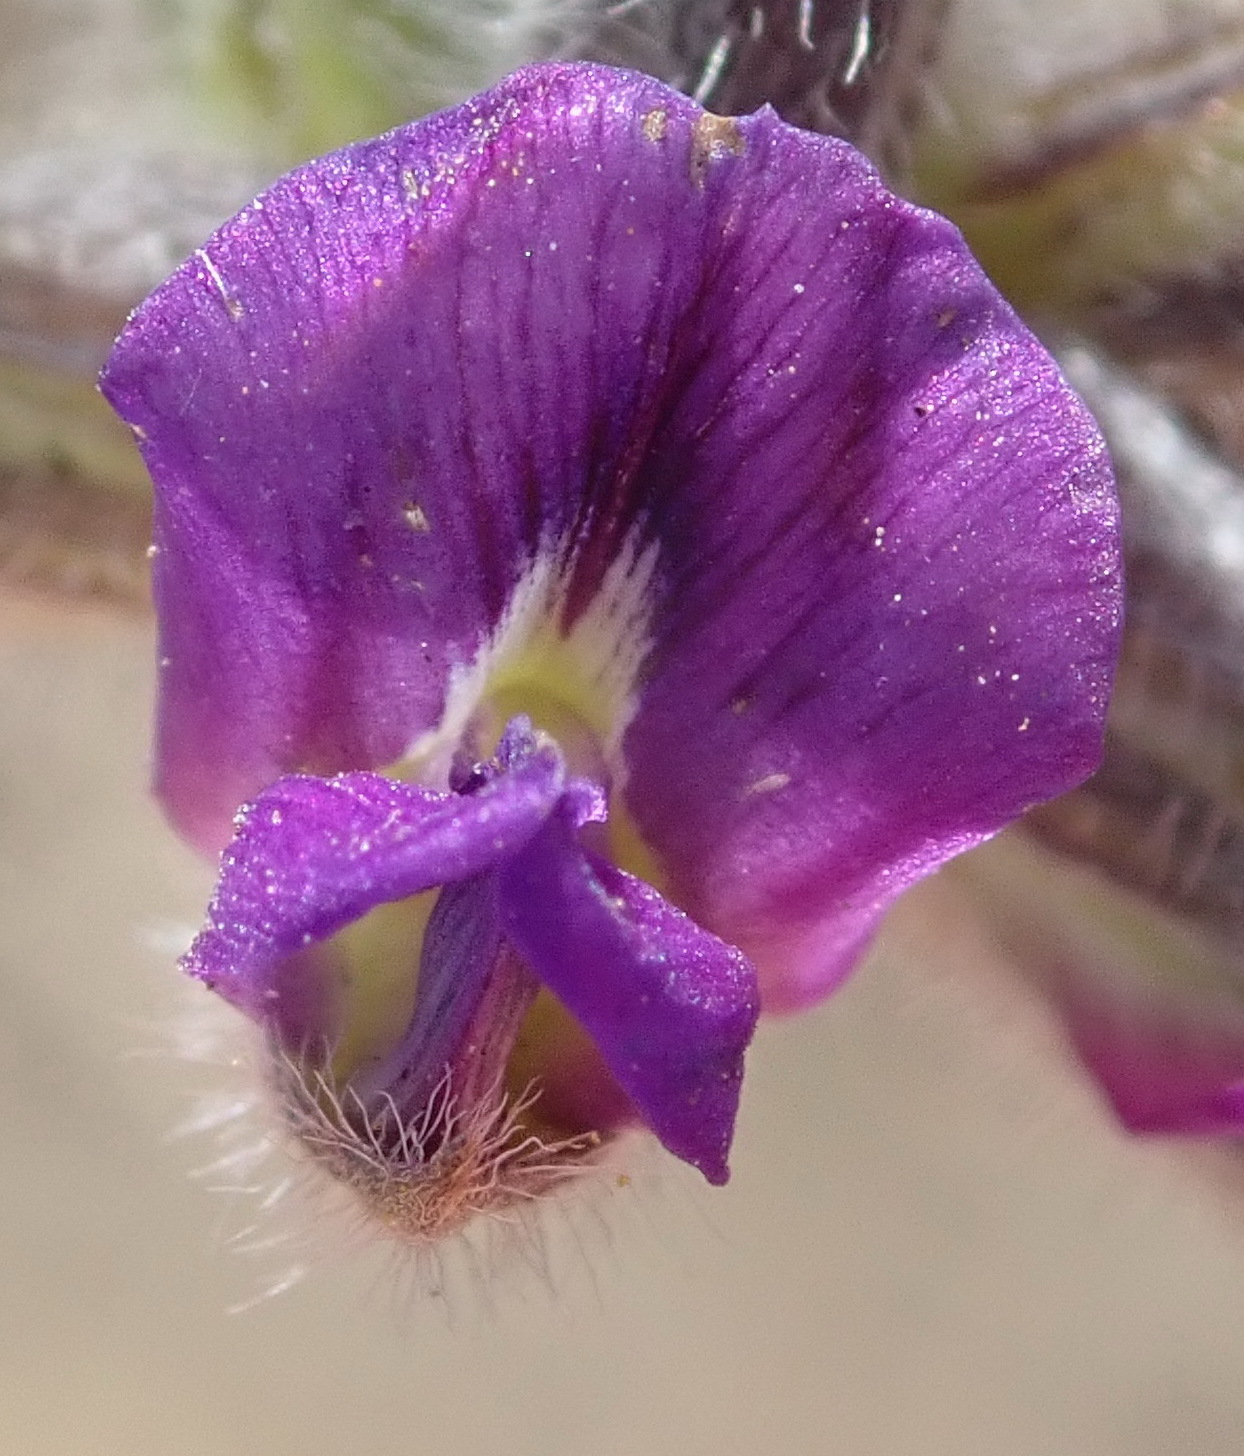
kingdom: Plantae
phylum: Tracheophyta
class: Magnoliopsida
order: Fabales
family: Fabaceae
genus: Psoralea
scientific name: Psoralea swartbergensis
